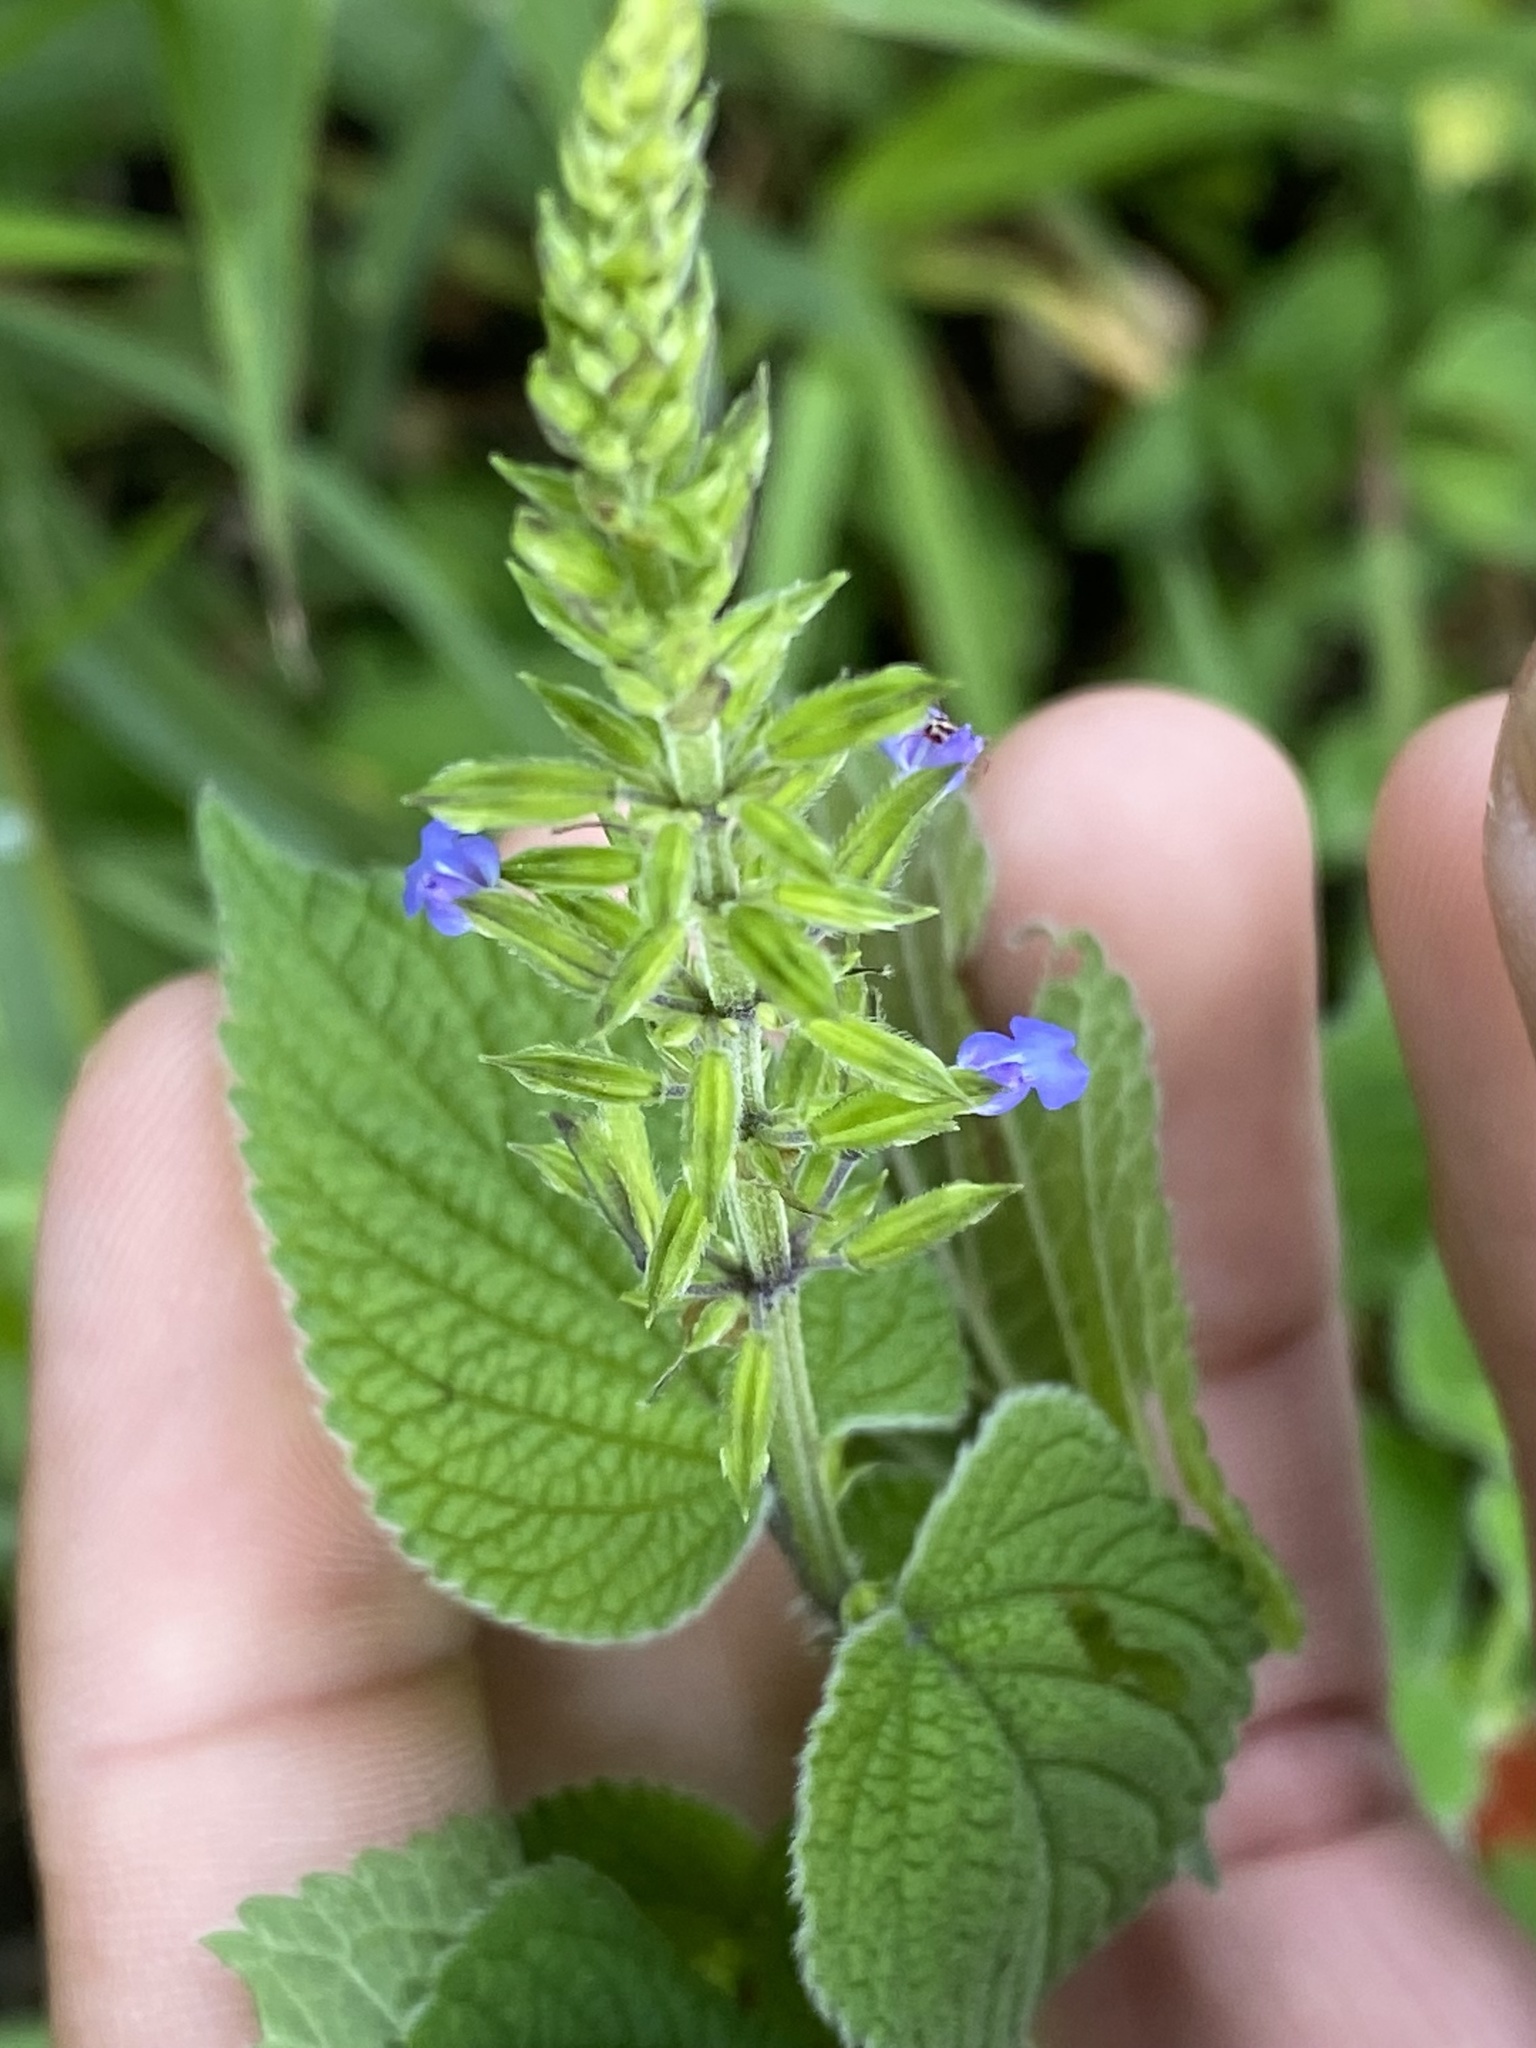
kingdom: Plantae
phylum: Tracheophyta
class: Magnoliopsida
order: Lamiales
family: Lamiaceae
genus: Salvia
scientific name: Salvia tiliifolia
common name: Lindenleaf sage
